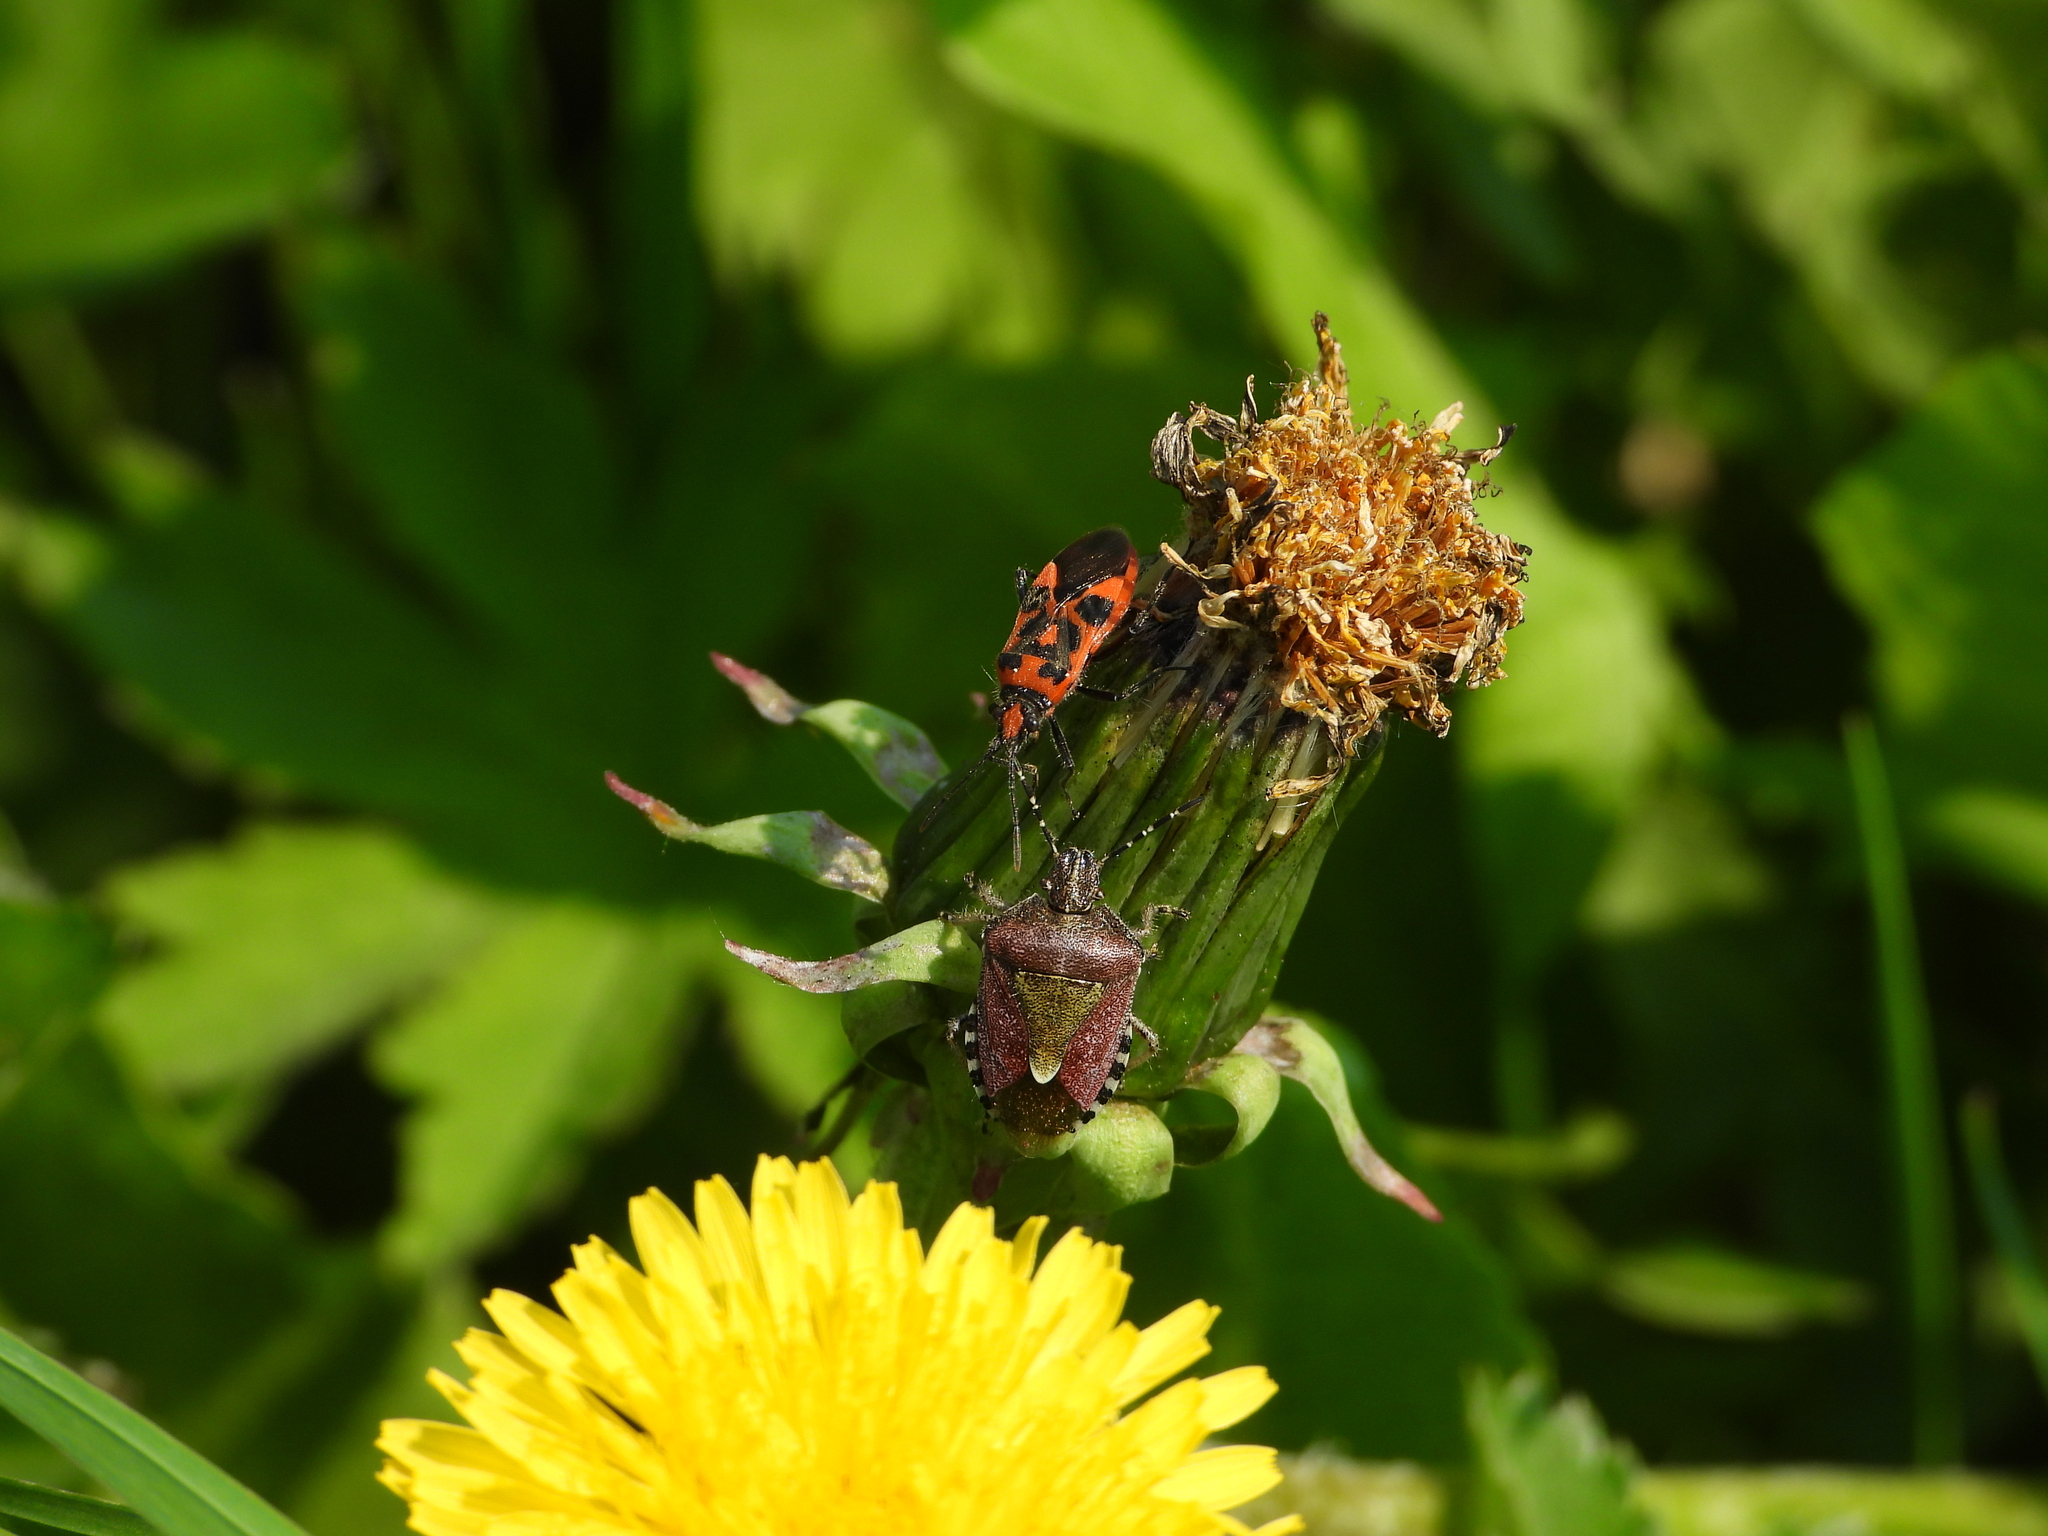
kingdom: Animalia
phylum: Arthropoda
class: Insecta
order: Hemiptera
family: Pentatomidae
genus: Dolycoris
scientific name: Dolycoris baccarum
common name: Sloe bug
